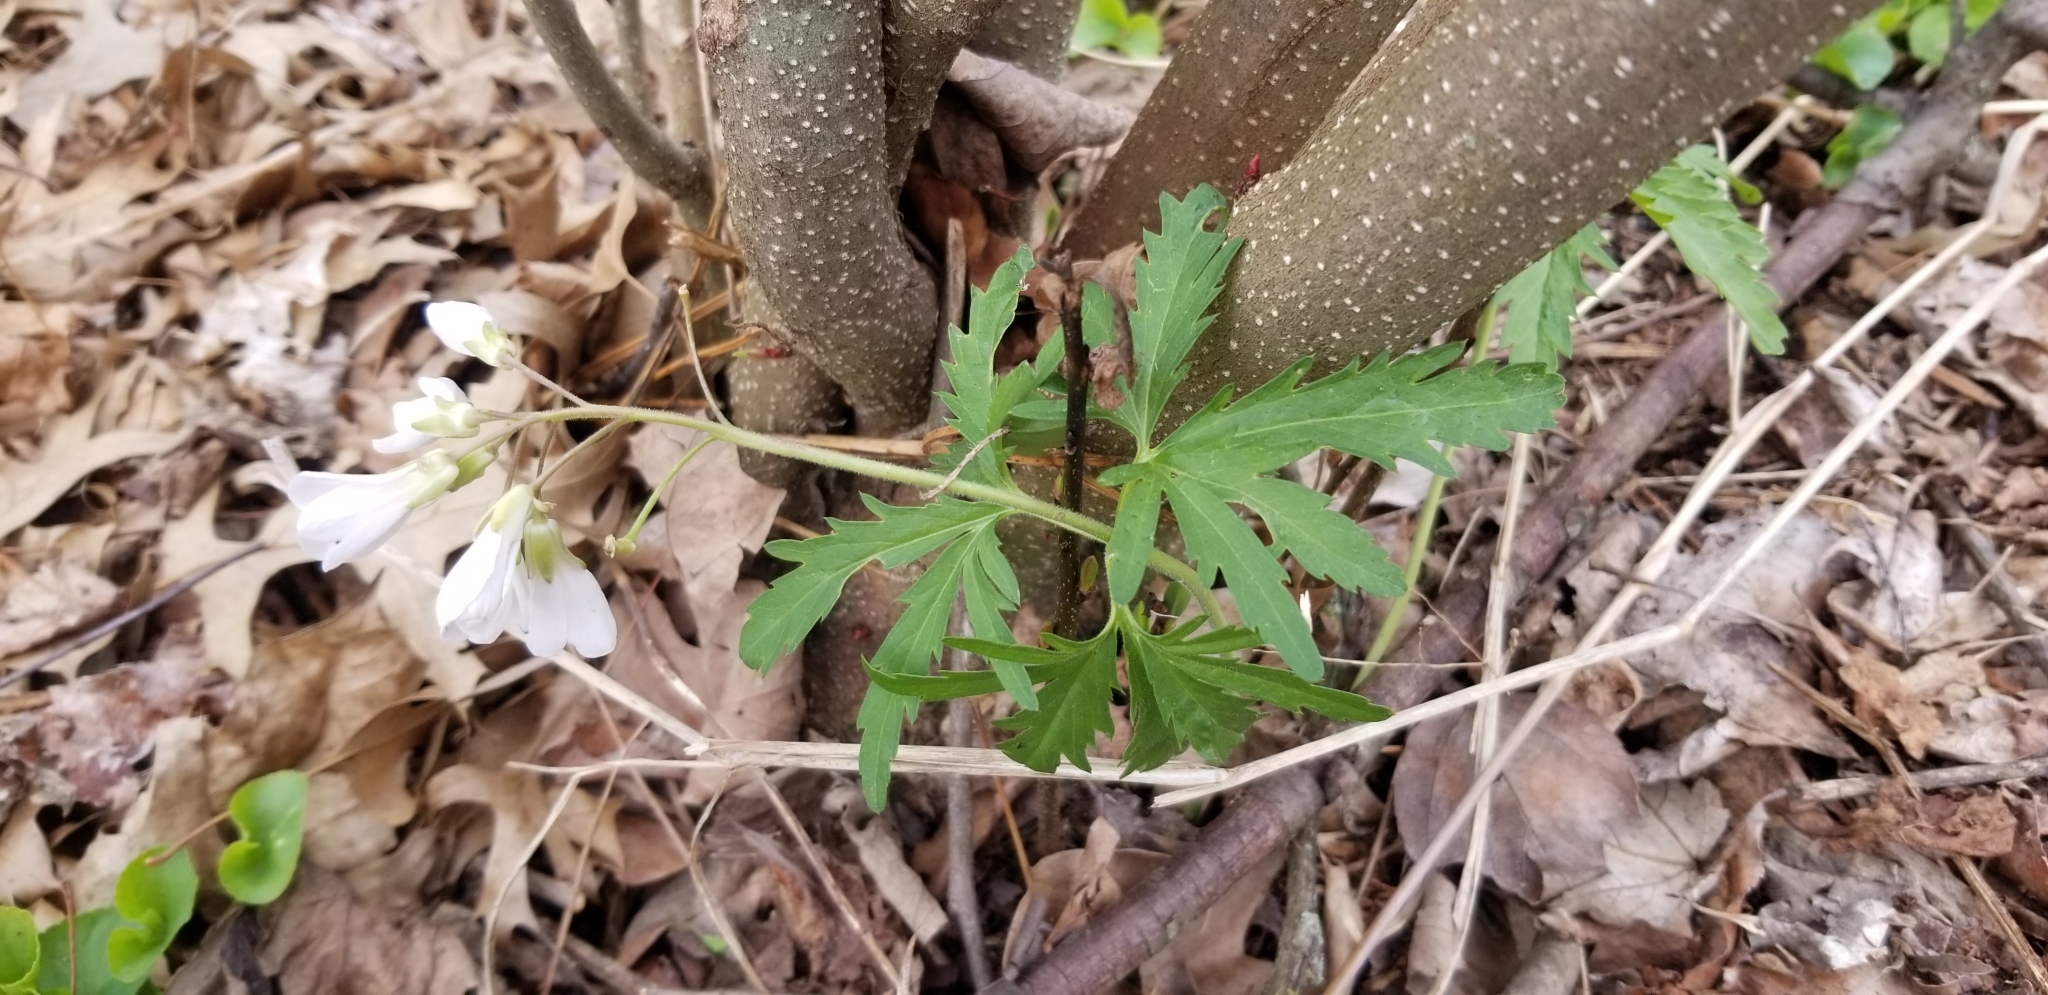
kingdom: Plantae
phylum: Tracheophyta
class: Magnoliopsida
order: Brassicales
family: Brassicaceae
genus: Cardamine
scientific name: Cardamine concatenata
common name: Cut-leaf toothcup
